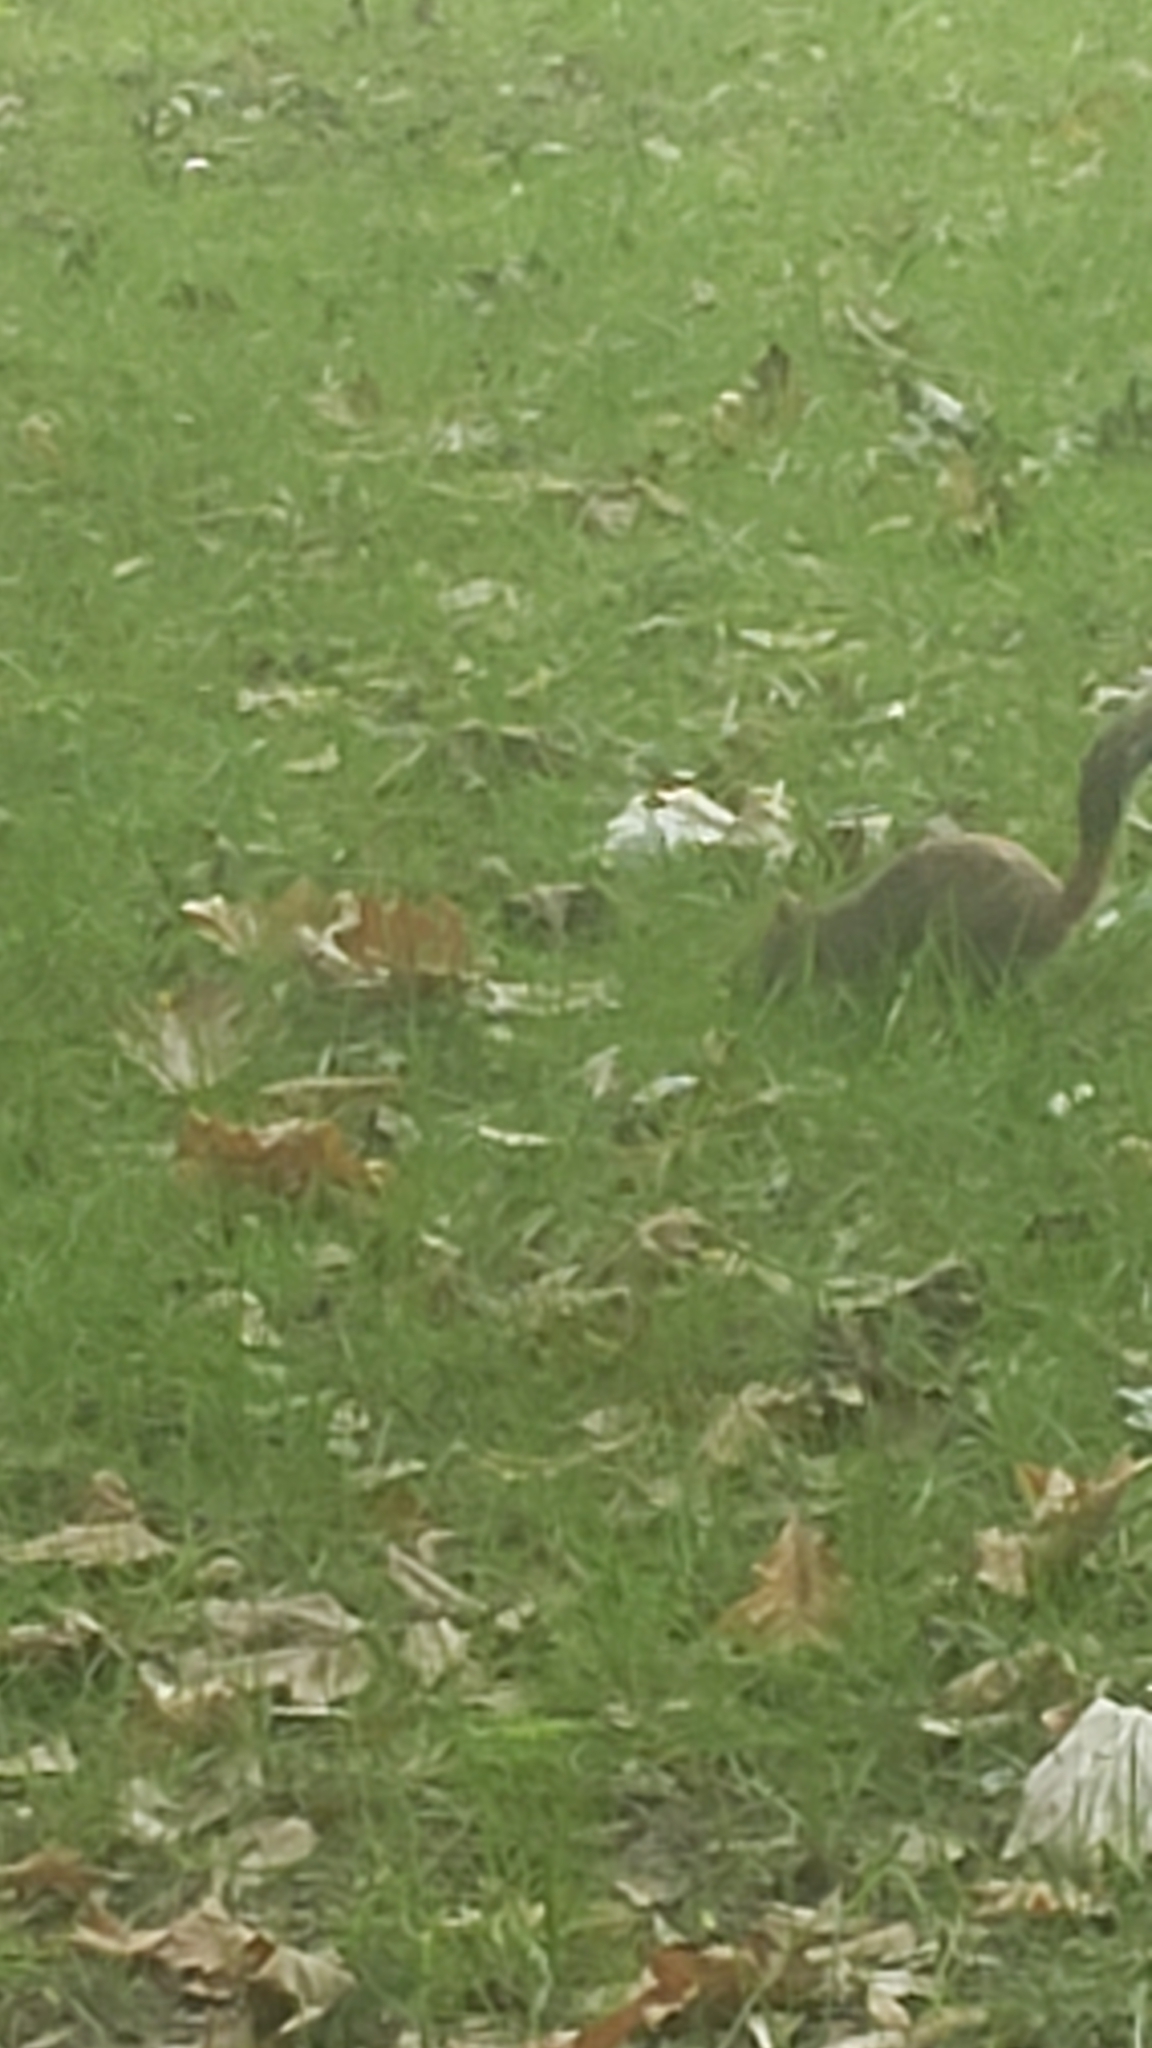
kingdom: Animalia
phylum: Chordata
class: Mammalia
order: Rodentia
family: Sciuridae
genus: Sciurus
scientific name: Sciurus carolinensis
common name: Eastern gray squirrel
